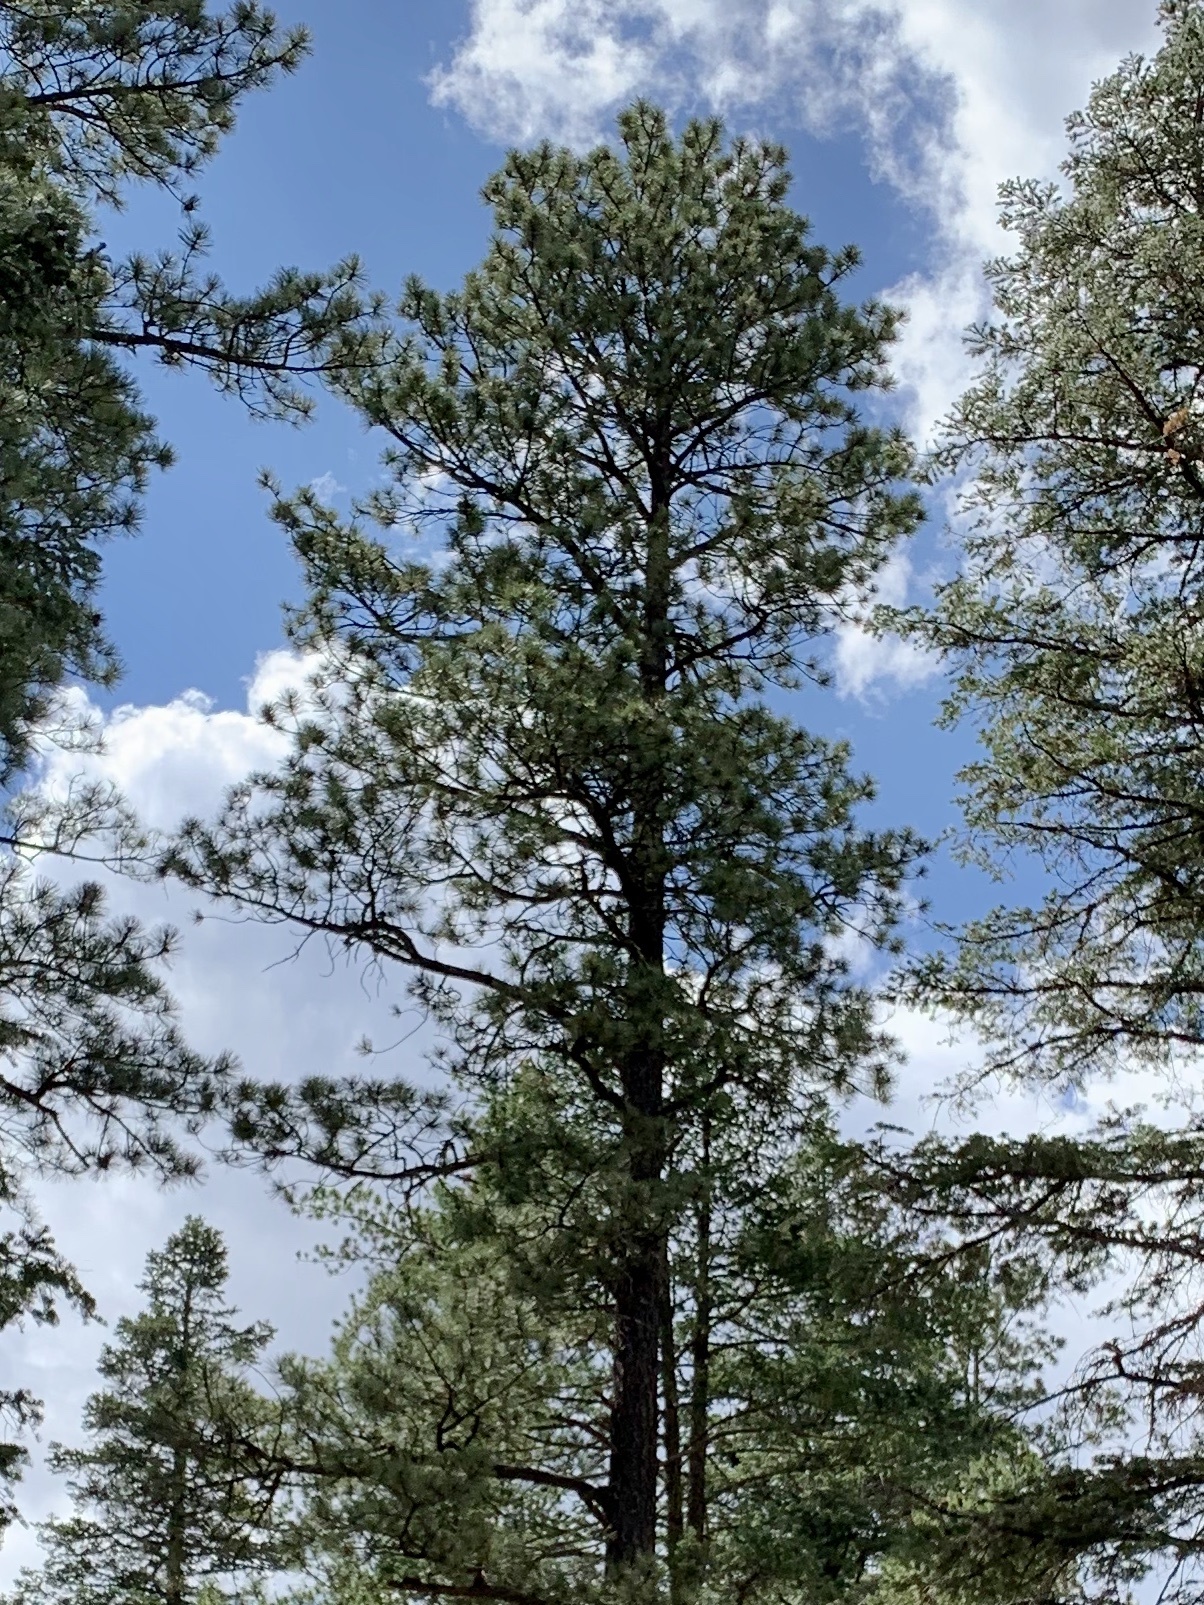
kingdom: Plantae
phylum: Tracheophyta
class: Pinopsida
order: Pinales
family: Pinaceae
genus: Pinus
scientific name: Pinus ponderosa
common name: Western yellow-pine
